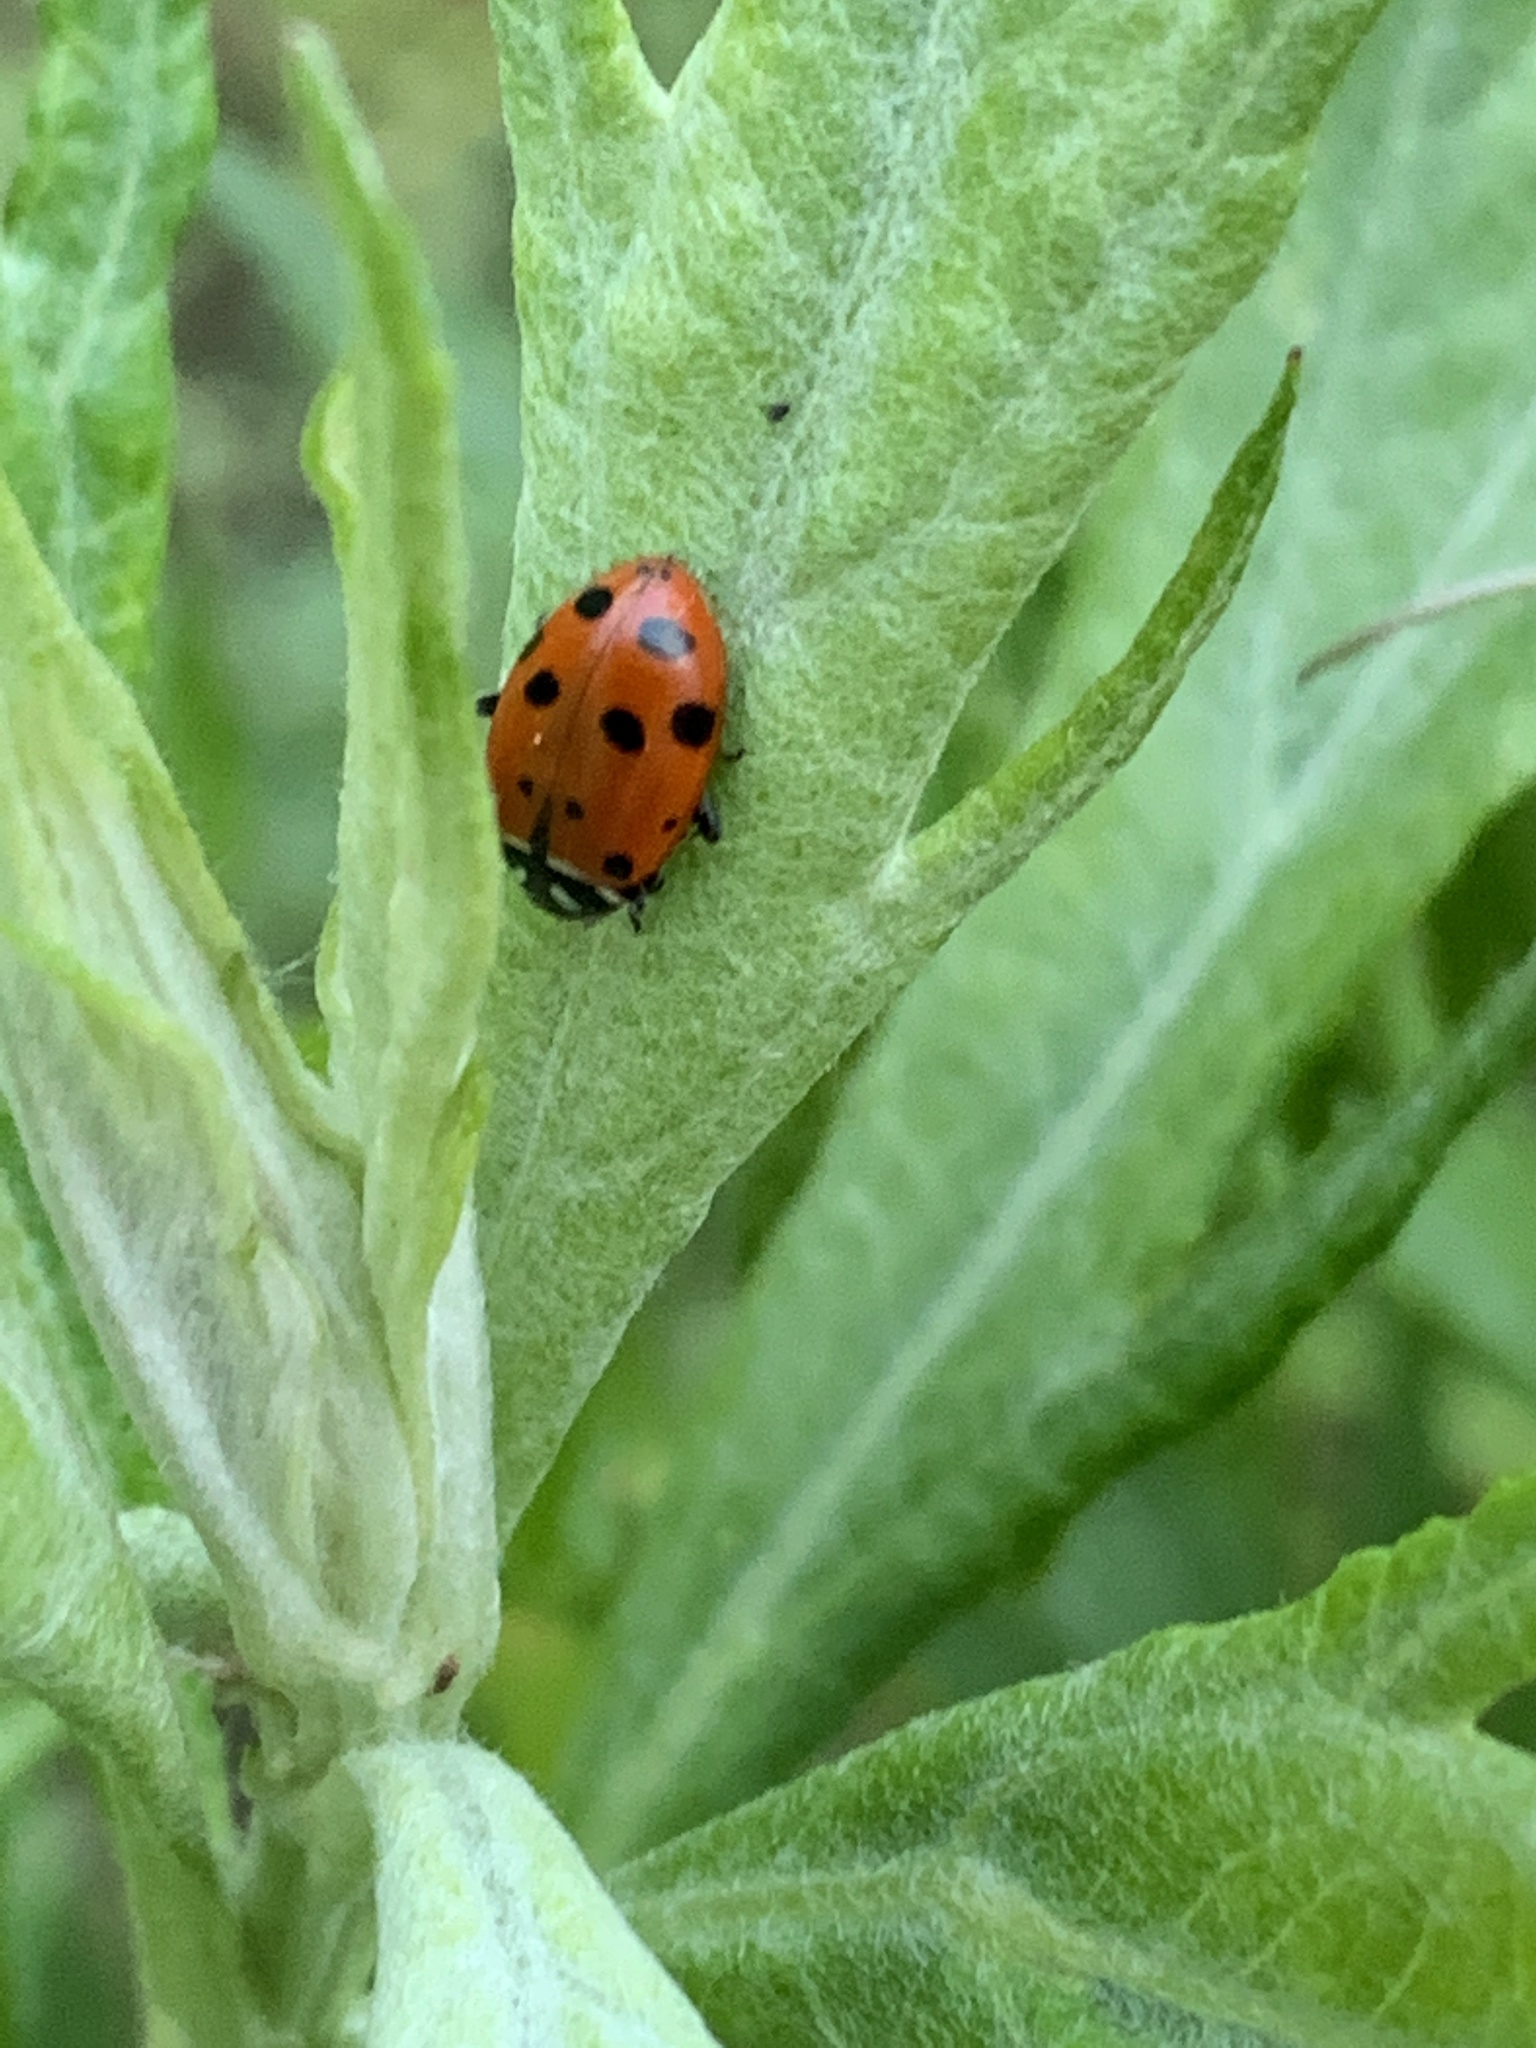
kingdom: Animalia
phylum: Arthropoda
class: Insecta
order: Coleoptera
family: Coccinellidae
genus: Hippodamia
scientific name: Hippodamia convergens
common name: Convergent lady beetle
